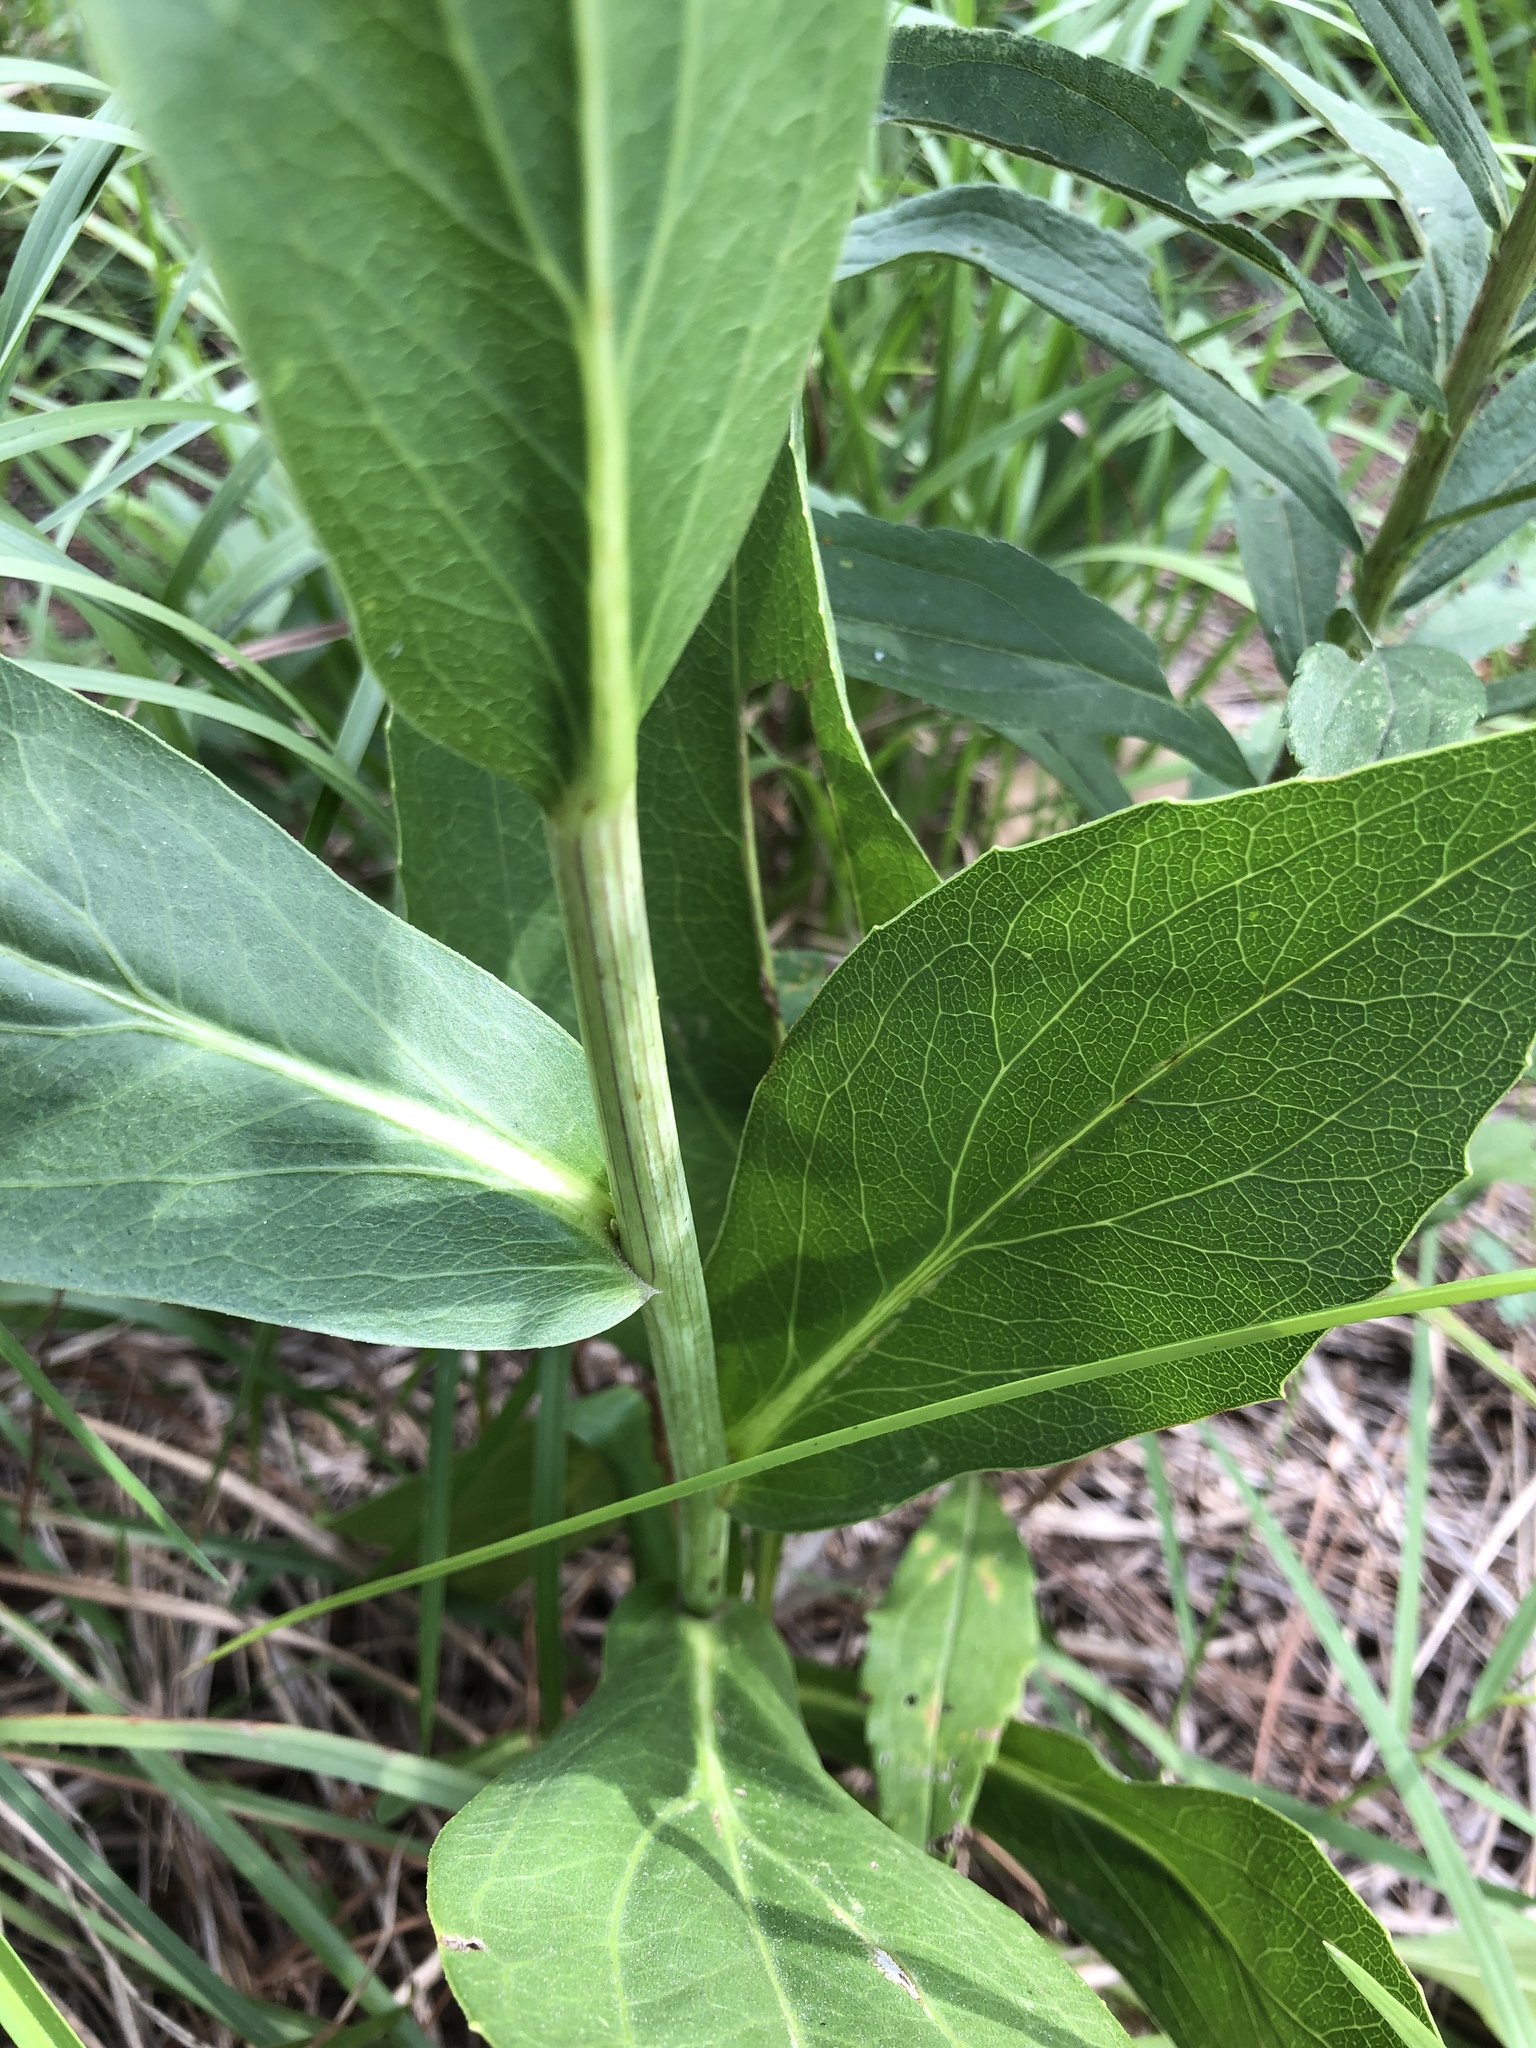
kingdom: Plantae
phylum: Tracheophyta
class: Magnoliopsida
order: Asterales
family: Asteraceae
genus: Rudbeckia
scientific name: Rudbeckia texana
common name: Texas coneflower
